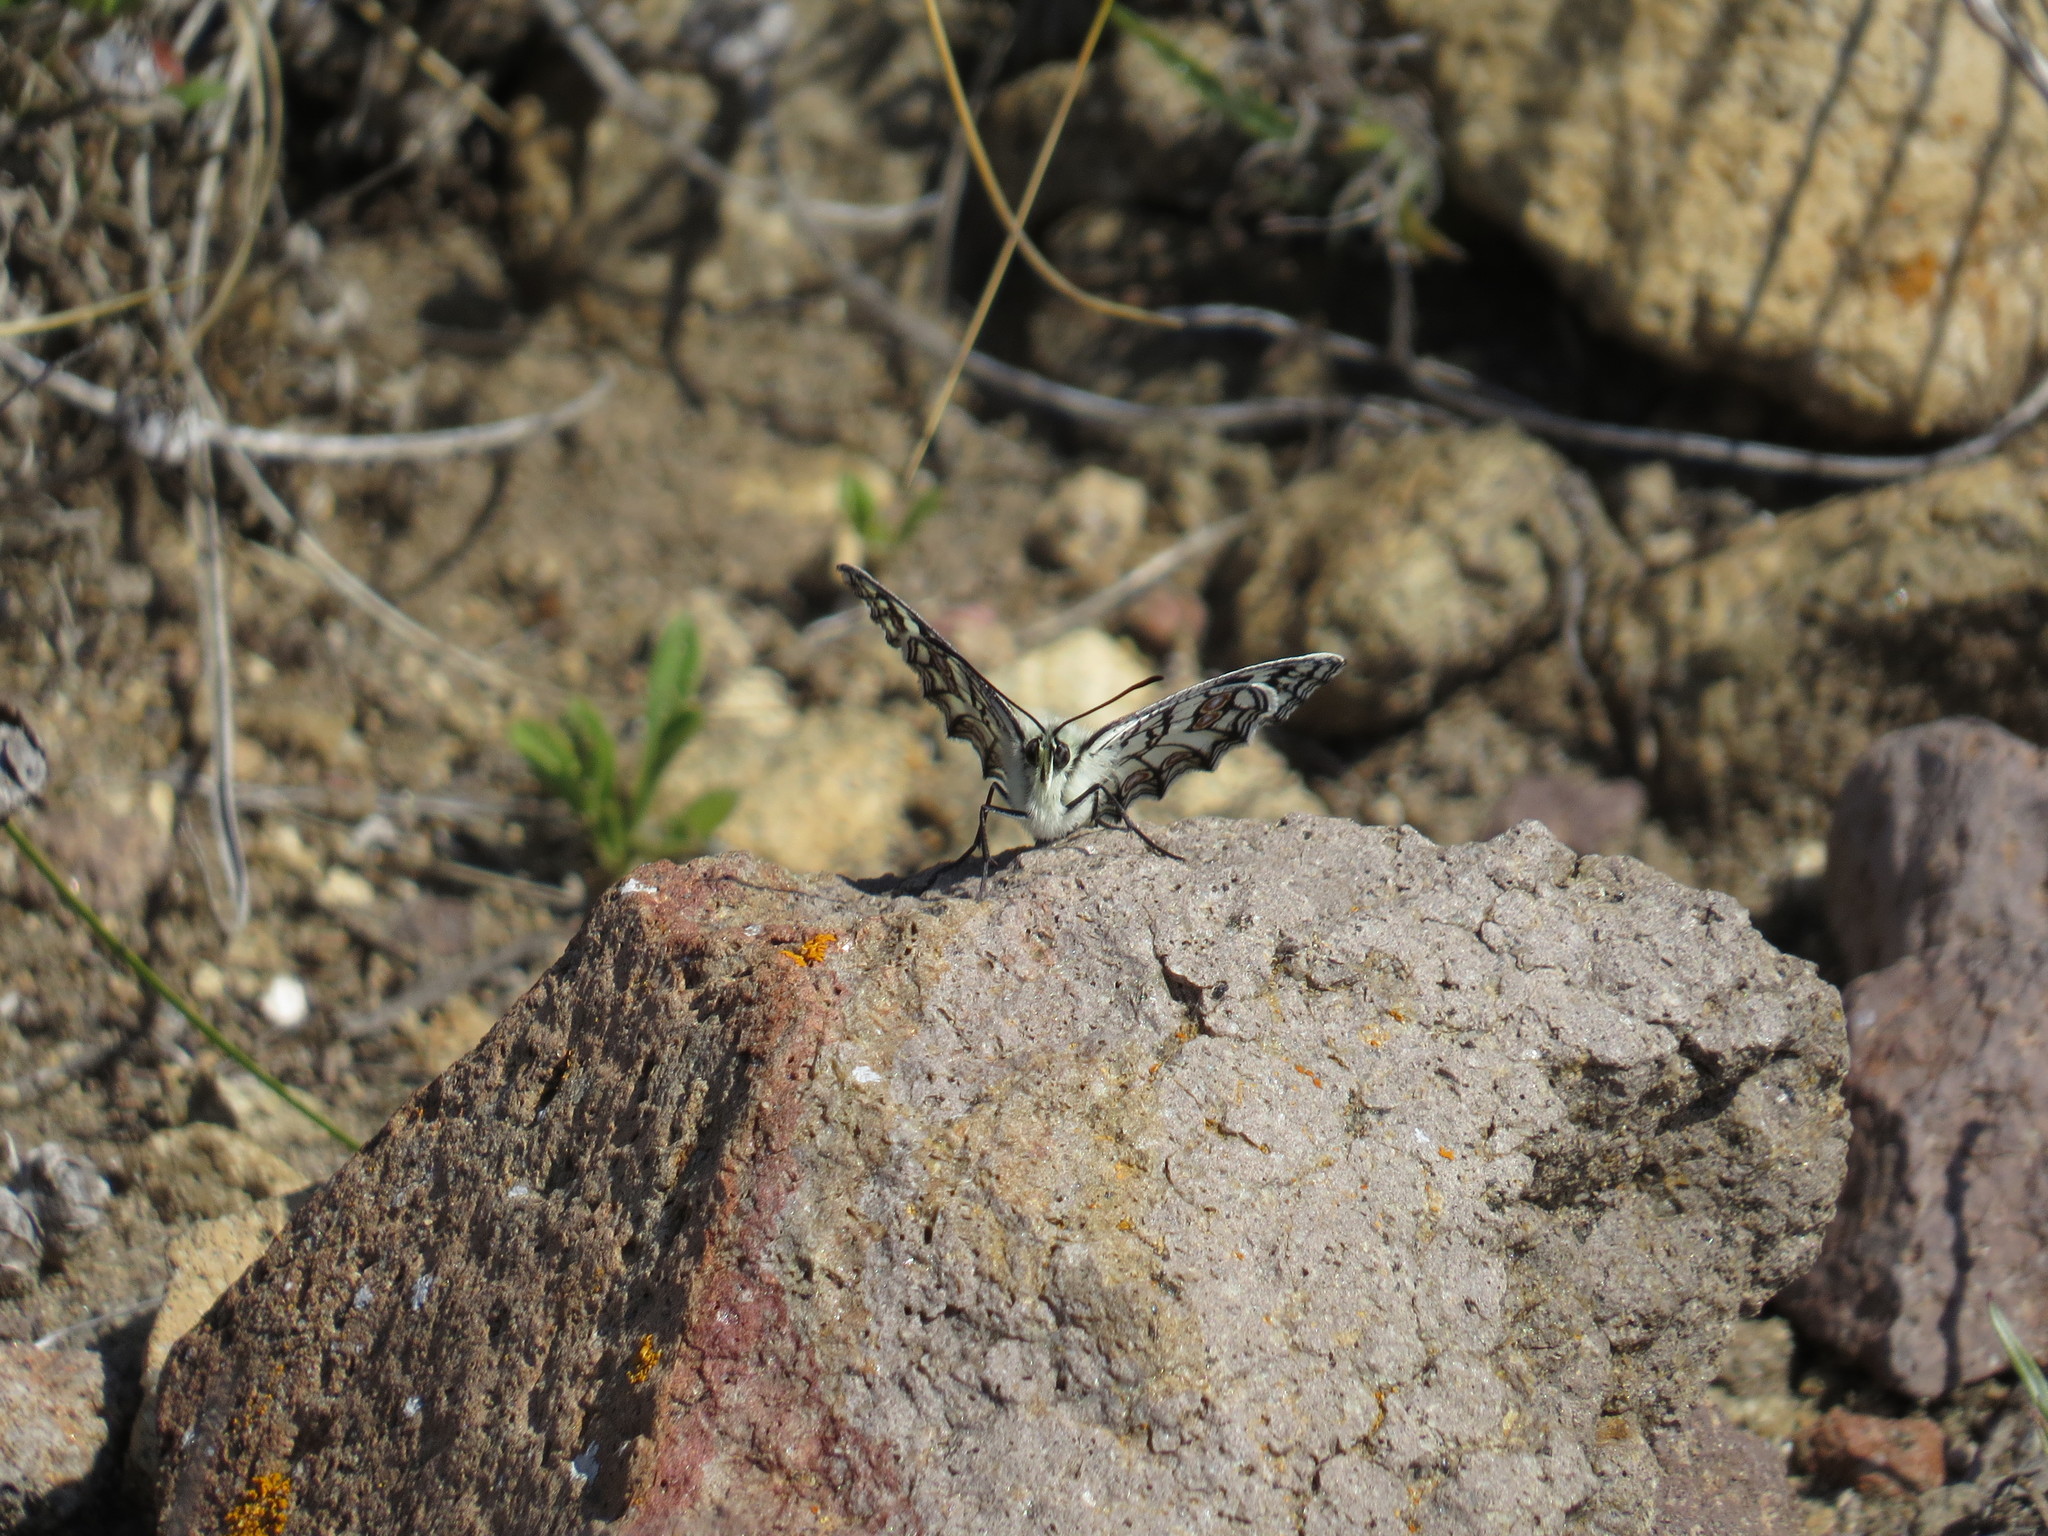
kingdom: Animalia
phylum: Arthropoda
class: Insecta
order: Lepidoptera
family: Nymphalidae
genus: Melanargia
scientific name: Melanargia ines
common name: Spanish marbled white
